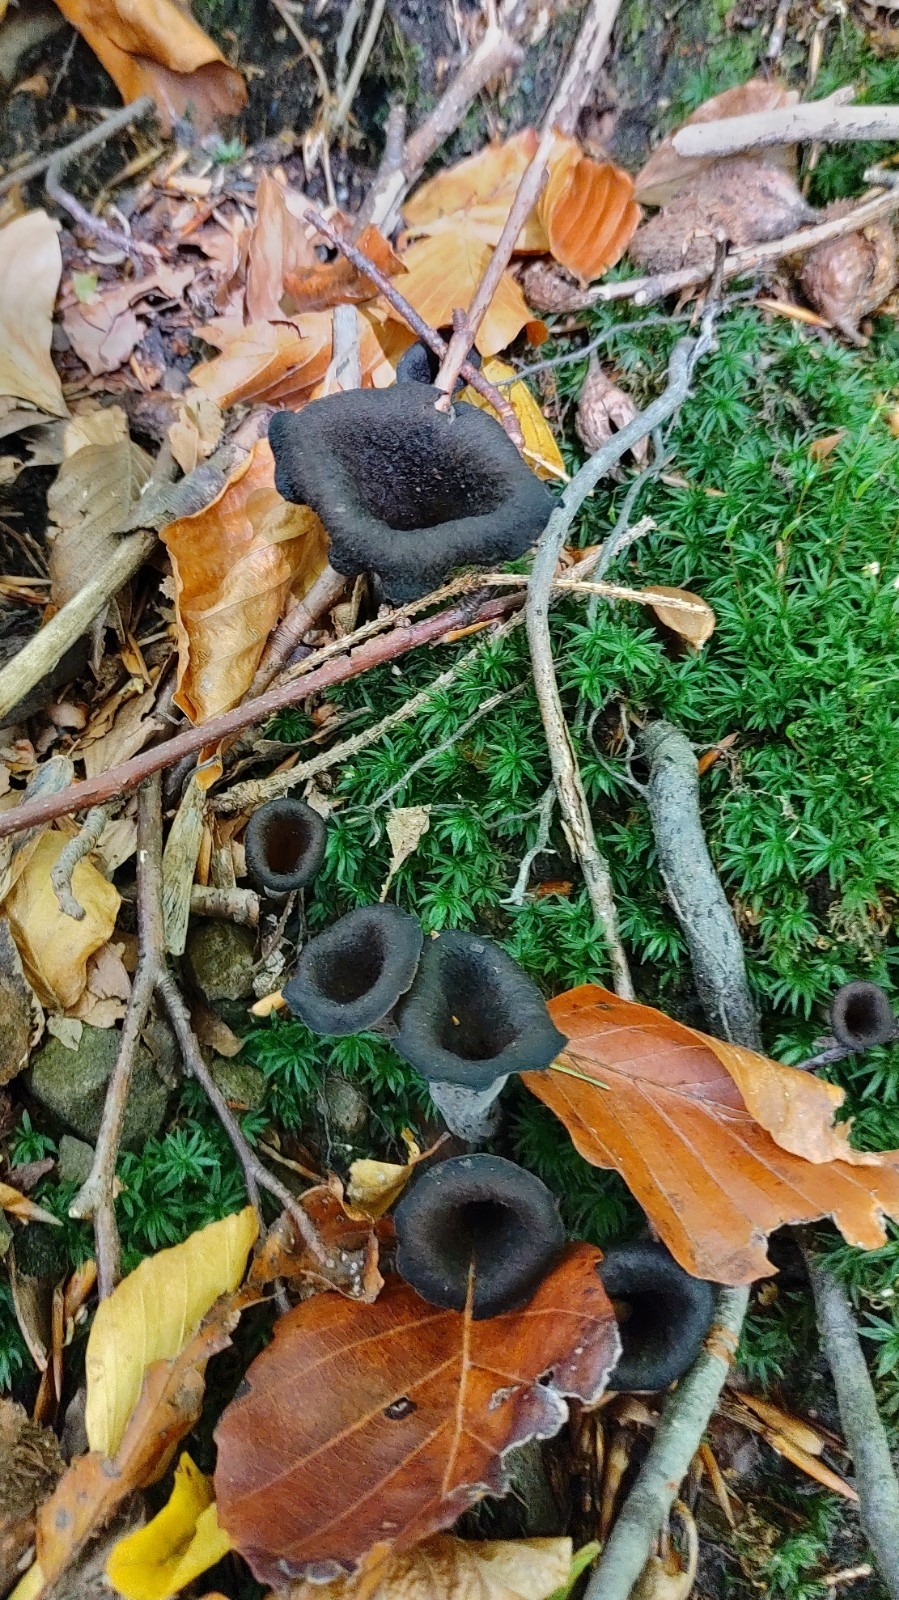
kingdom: Fungi
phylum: Basidiomycota
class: Agaricomycetes
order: Cantharellales
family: Hydnaceae
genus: Craterellus
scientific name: Craterellus cornucopioides
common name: Horn of plenty
